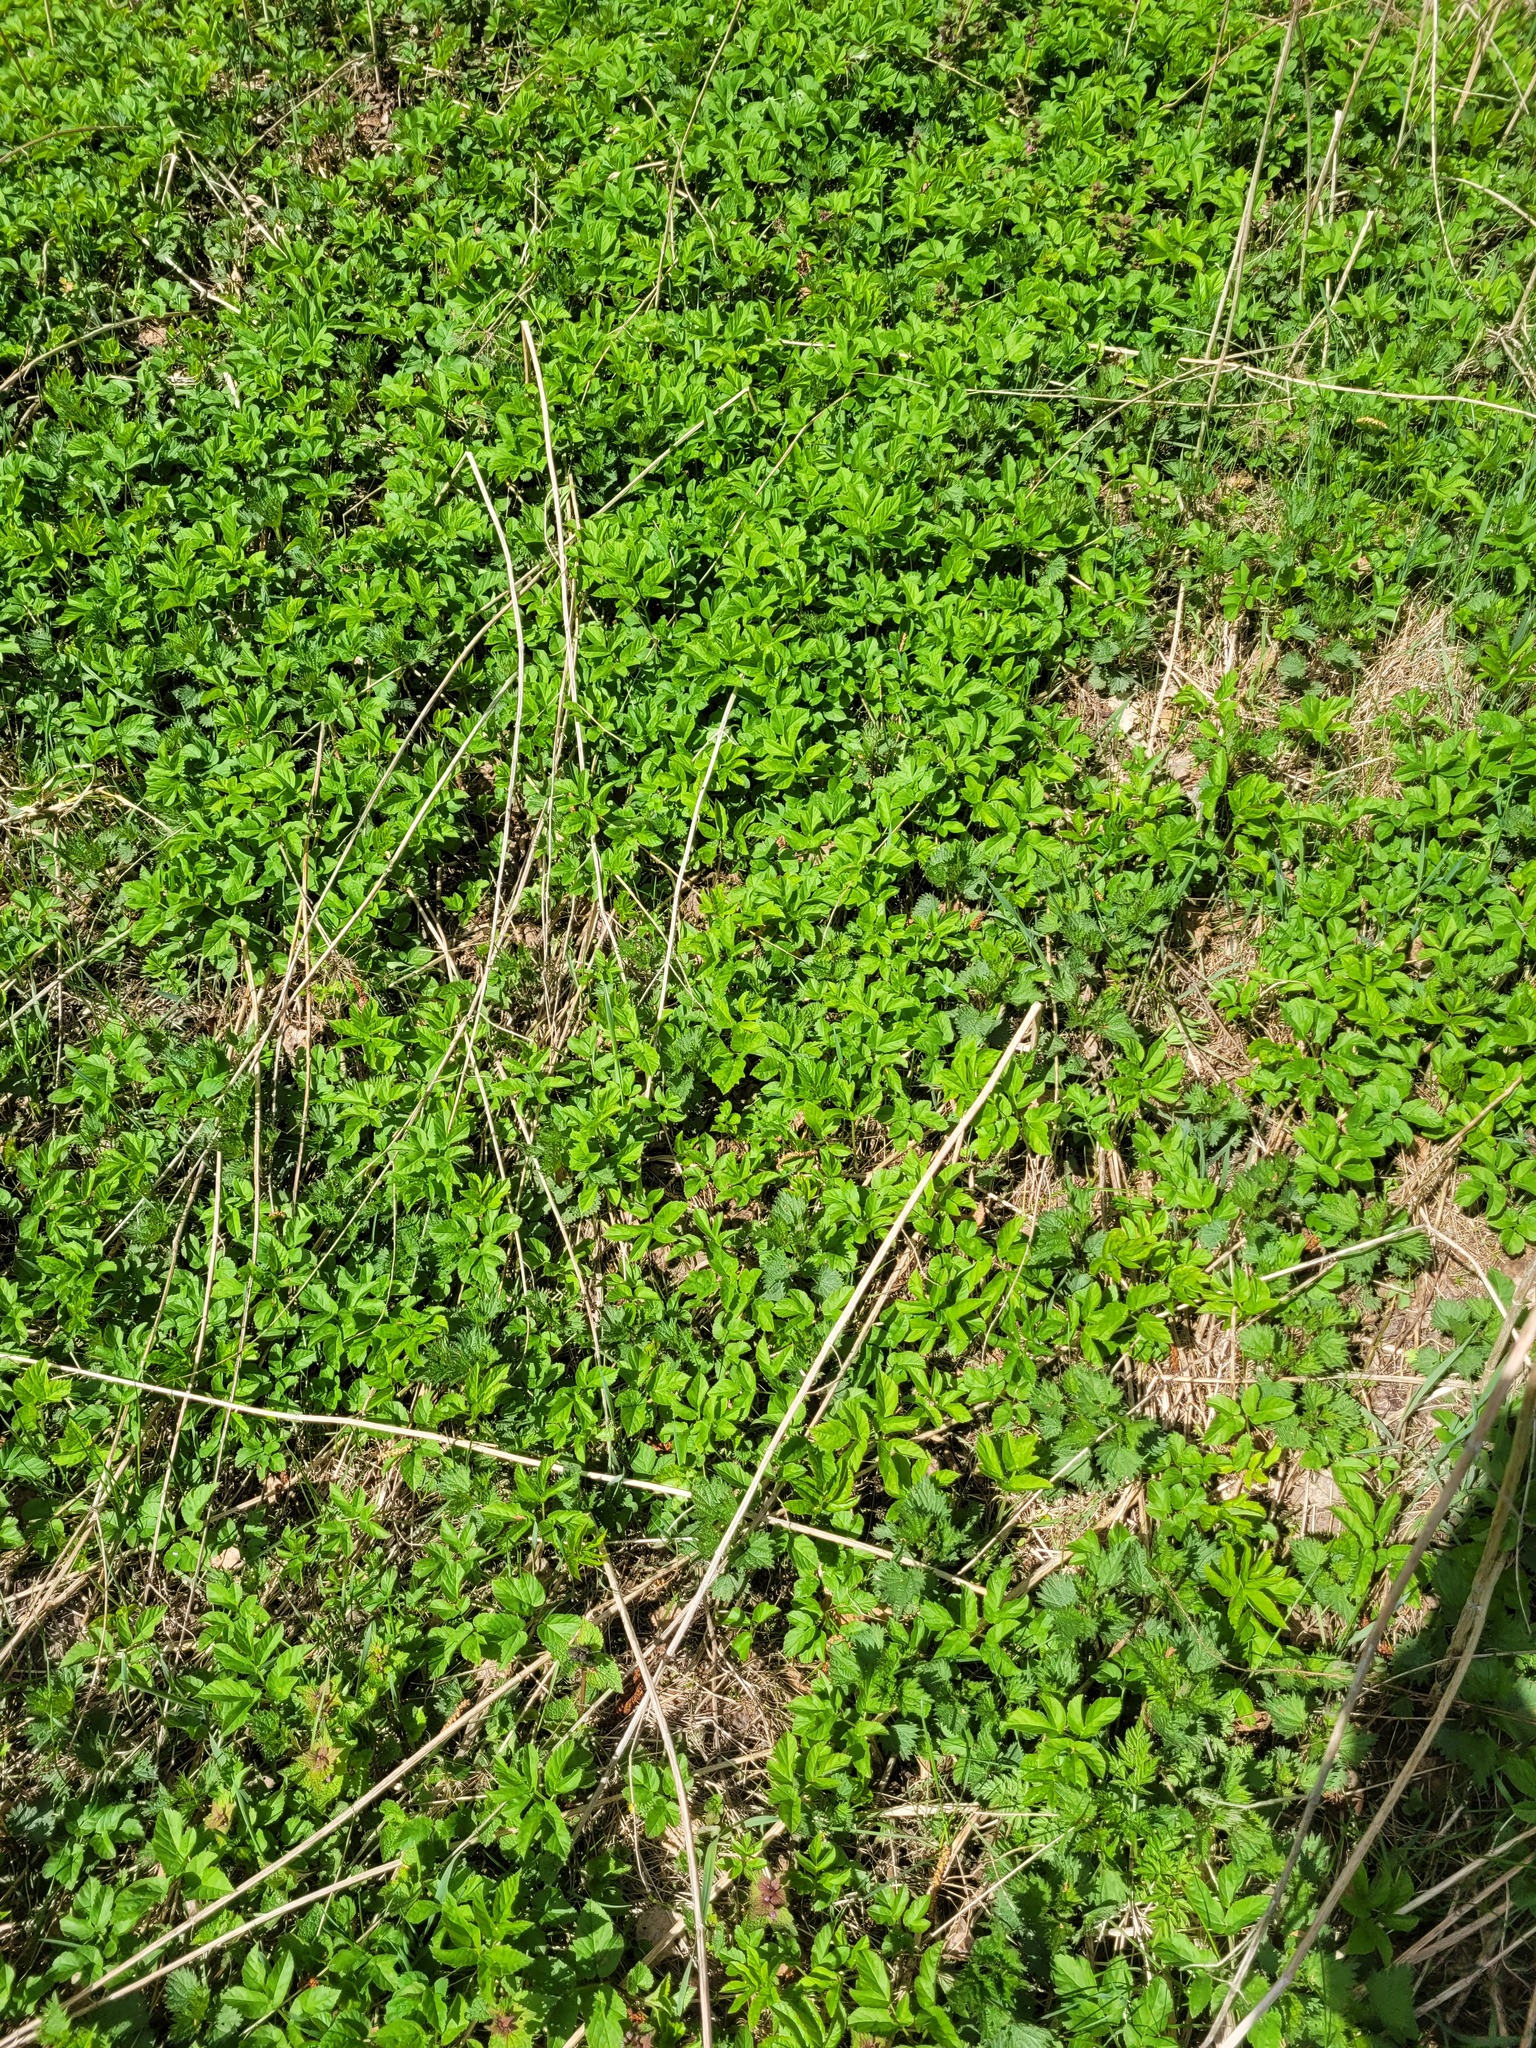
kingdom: Plantae
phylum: Tracheophyta
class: Magnoliopsida
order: Apiales
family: Apiaceae
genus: Aegopodium
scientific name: Aegopodium podagraria
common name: Ground-elder
